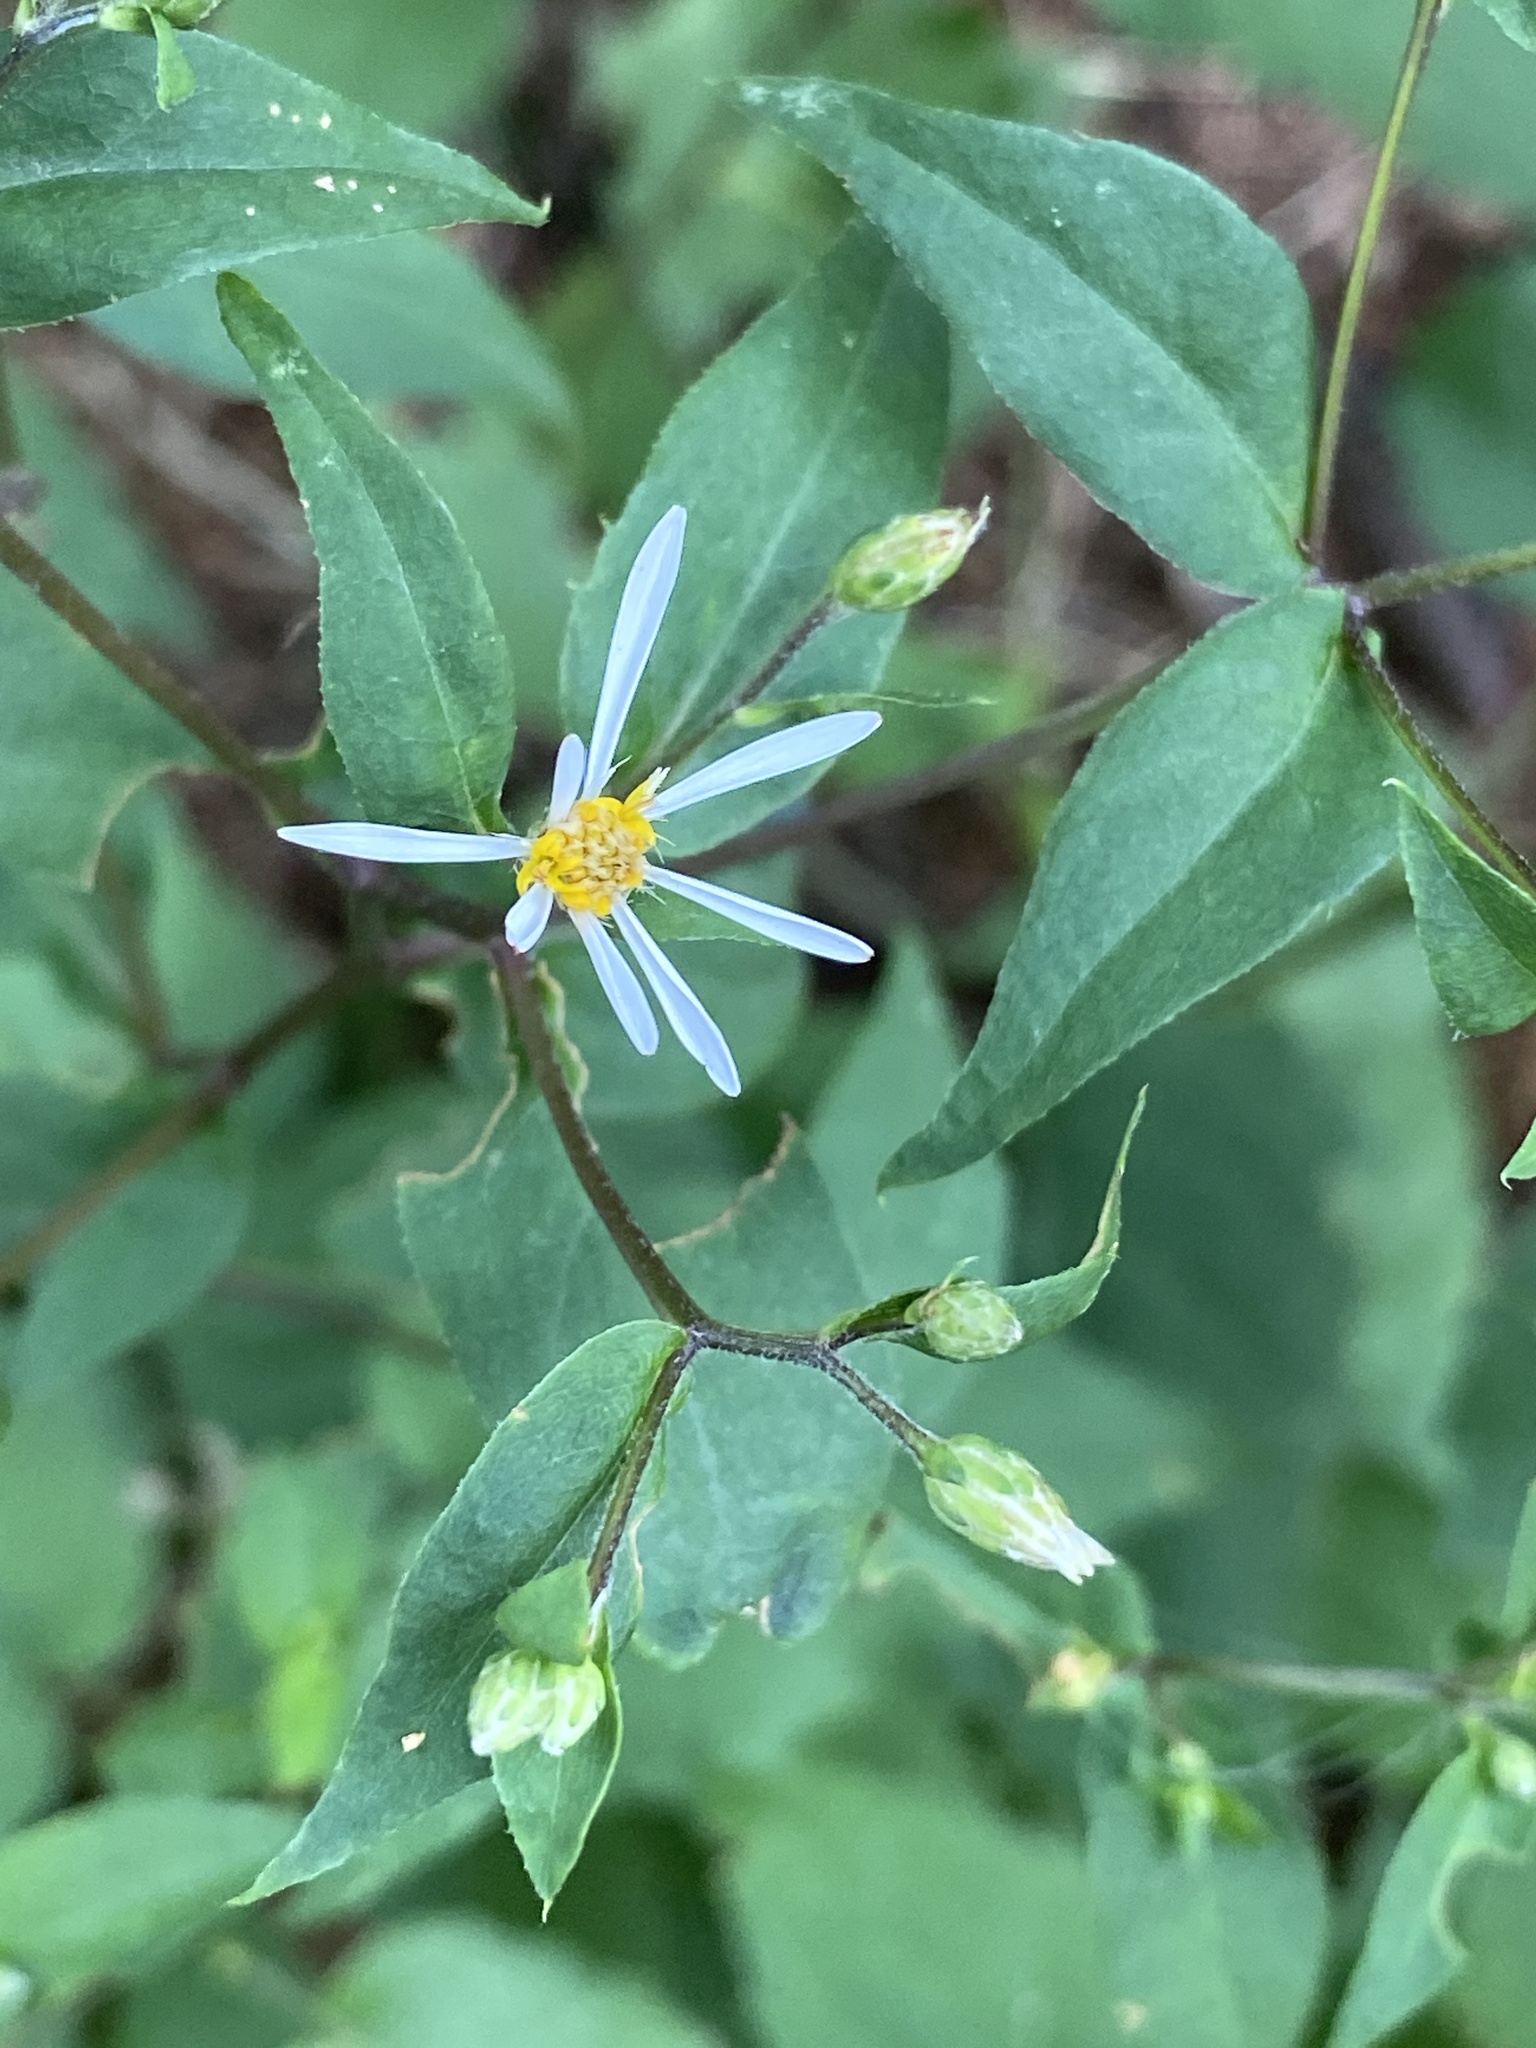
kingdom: Plantae
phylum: Tracheophyta
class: Magnoliopsida
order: Asterales
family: Asteraceae
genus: Eurybia
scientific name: Eurybia divaricata
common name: White wood aster
